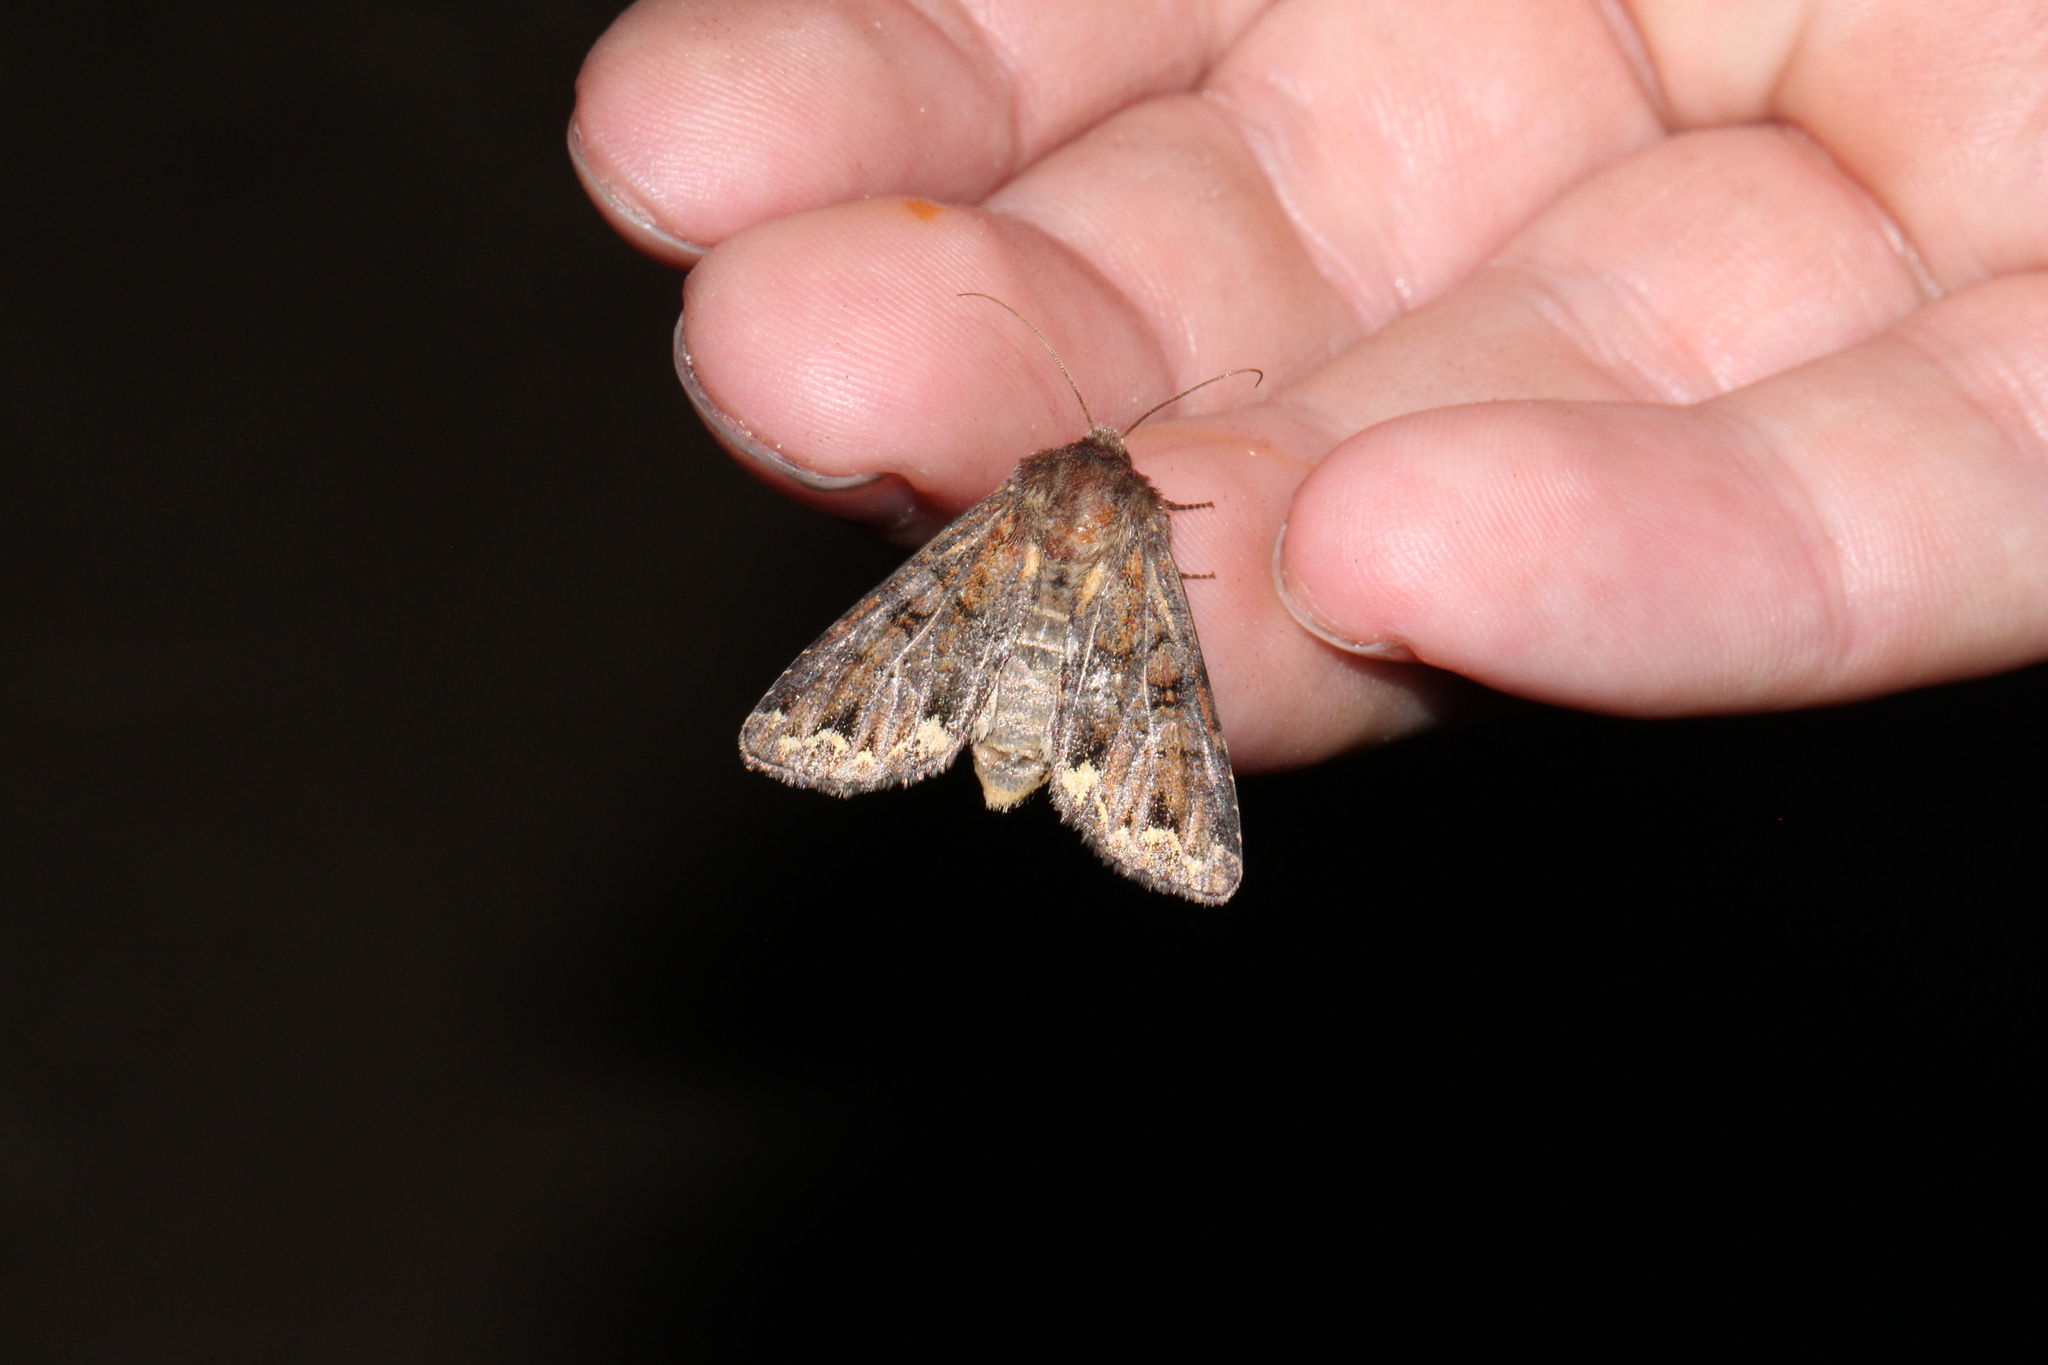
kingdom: Animalia
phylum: Arthropoda
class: Insecta
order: Lepidoptera
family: Noctuidae
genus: Ceramica
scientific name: Ceramica pisi
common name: Broom moth
